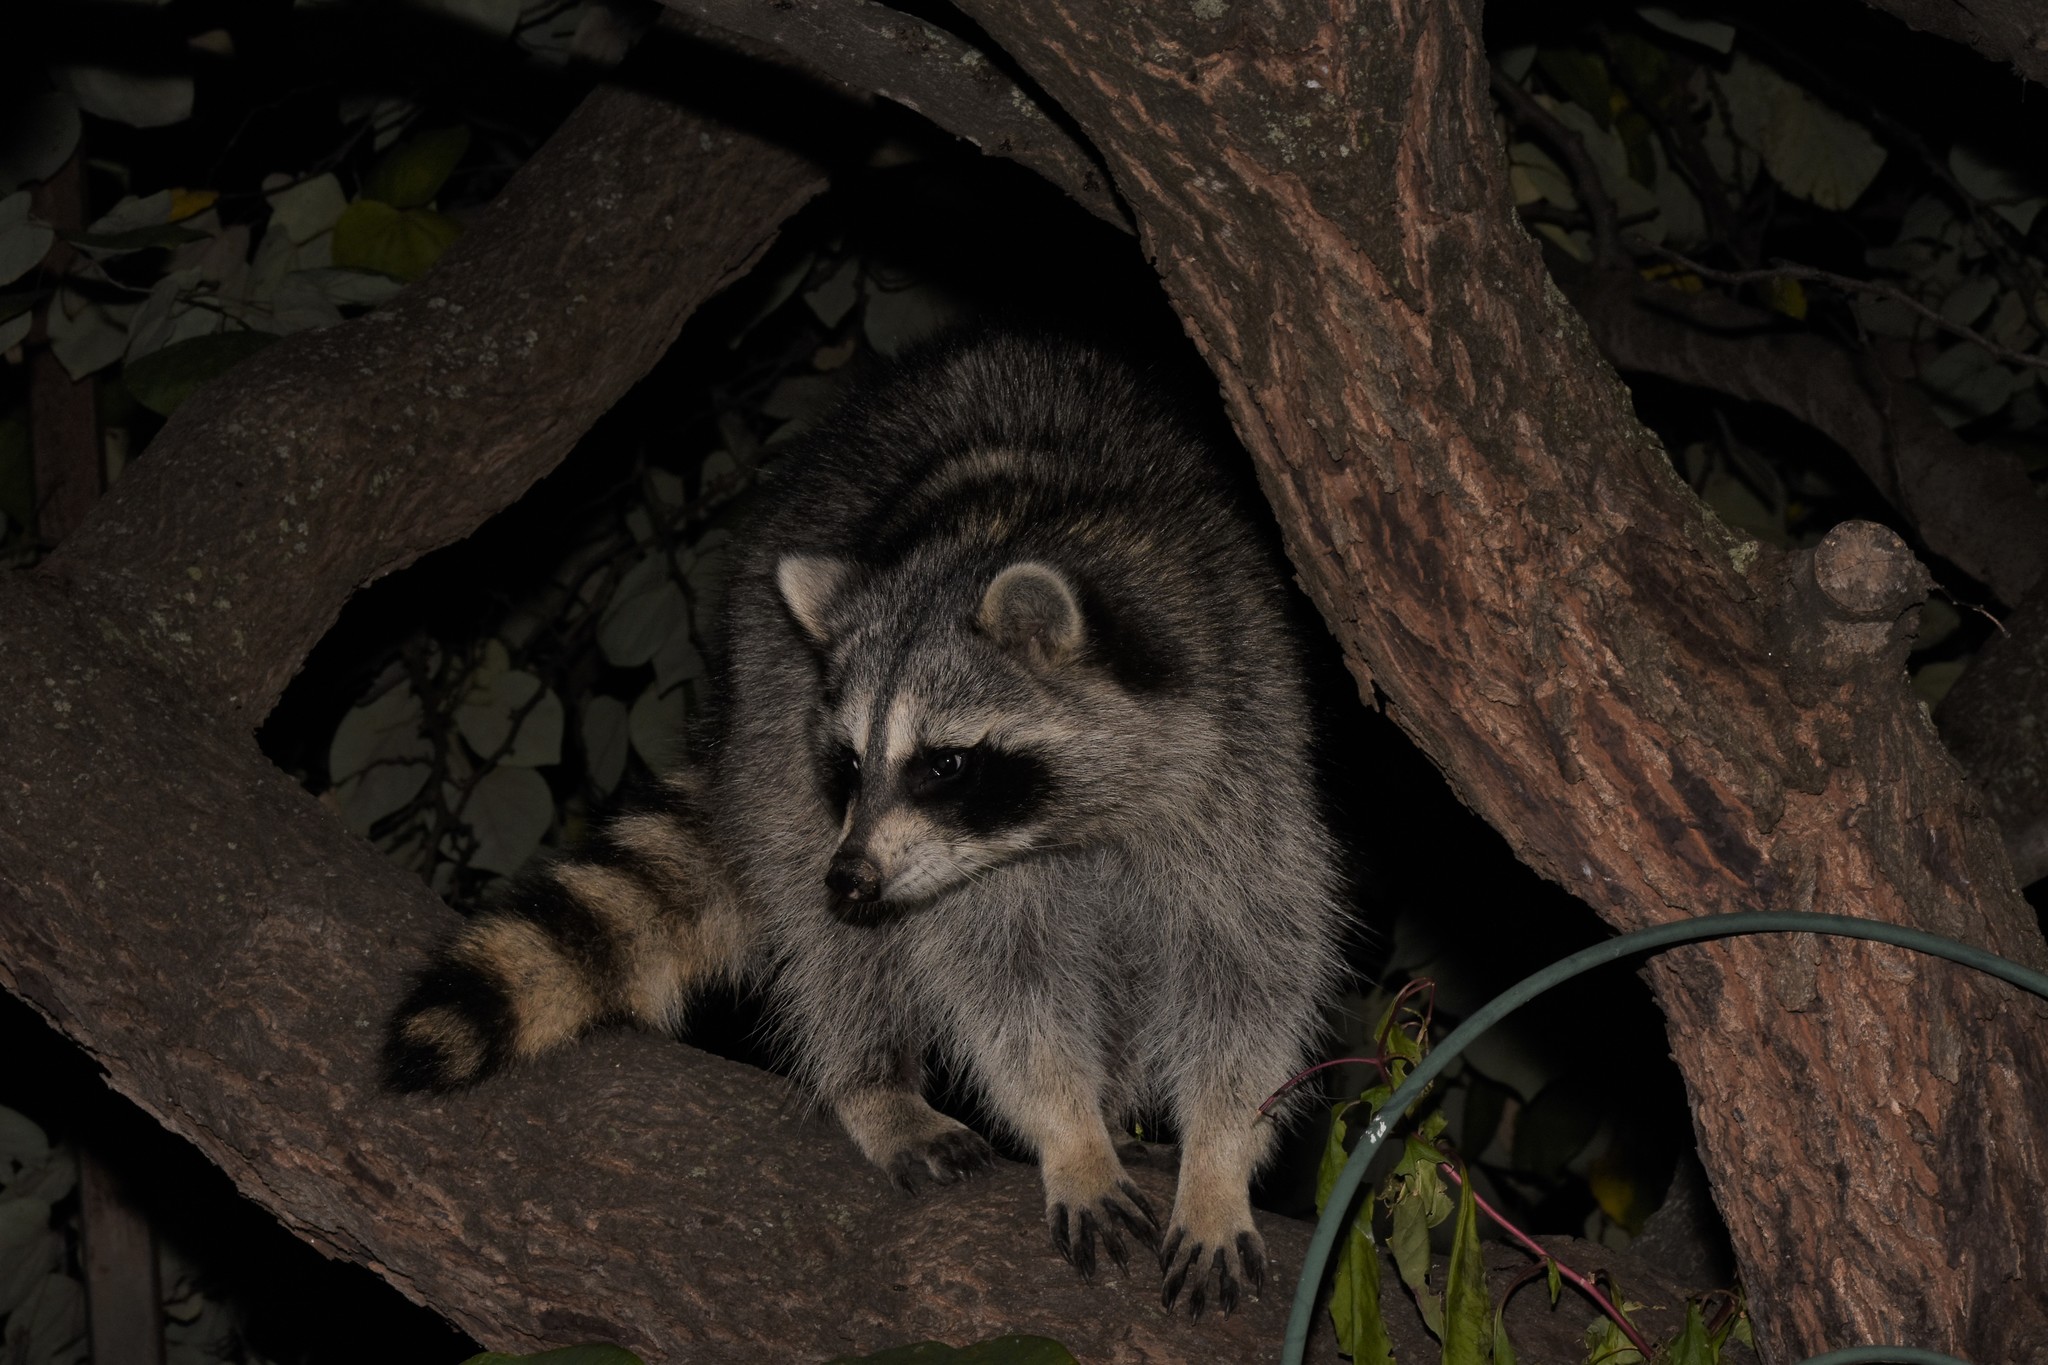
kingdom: Animalia
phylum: Chordata
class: Mammalia
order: Carnivora
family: Procyonidae
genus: Procyon
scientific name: Procyon lotor
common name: Raccoon
